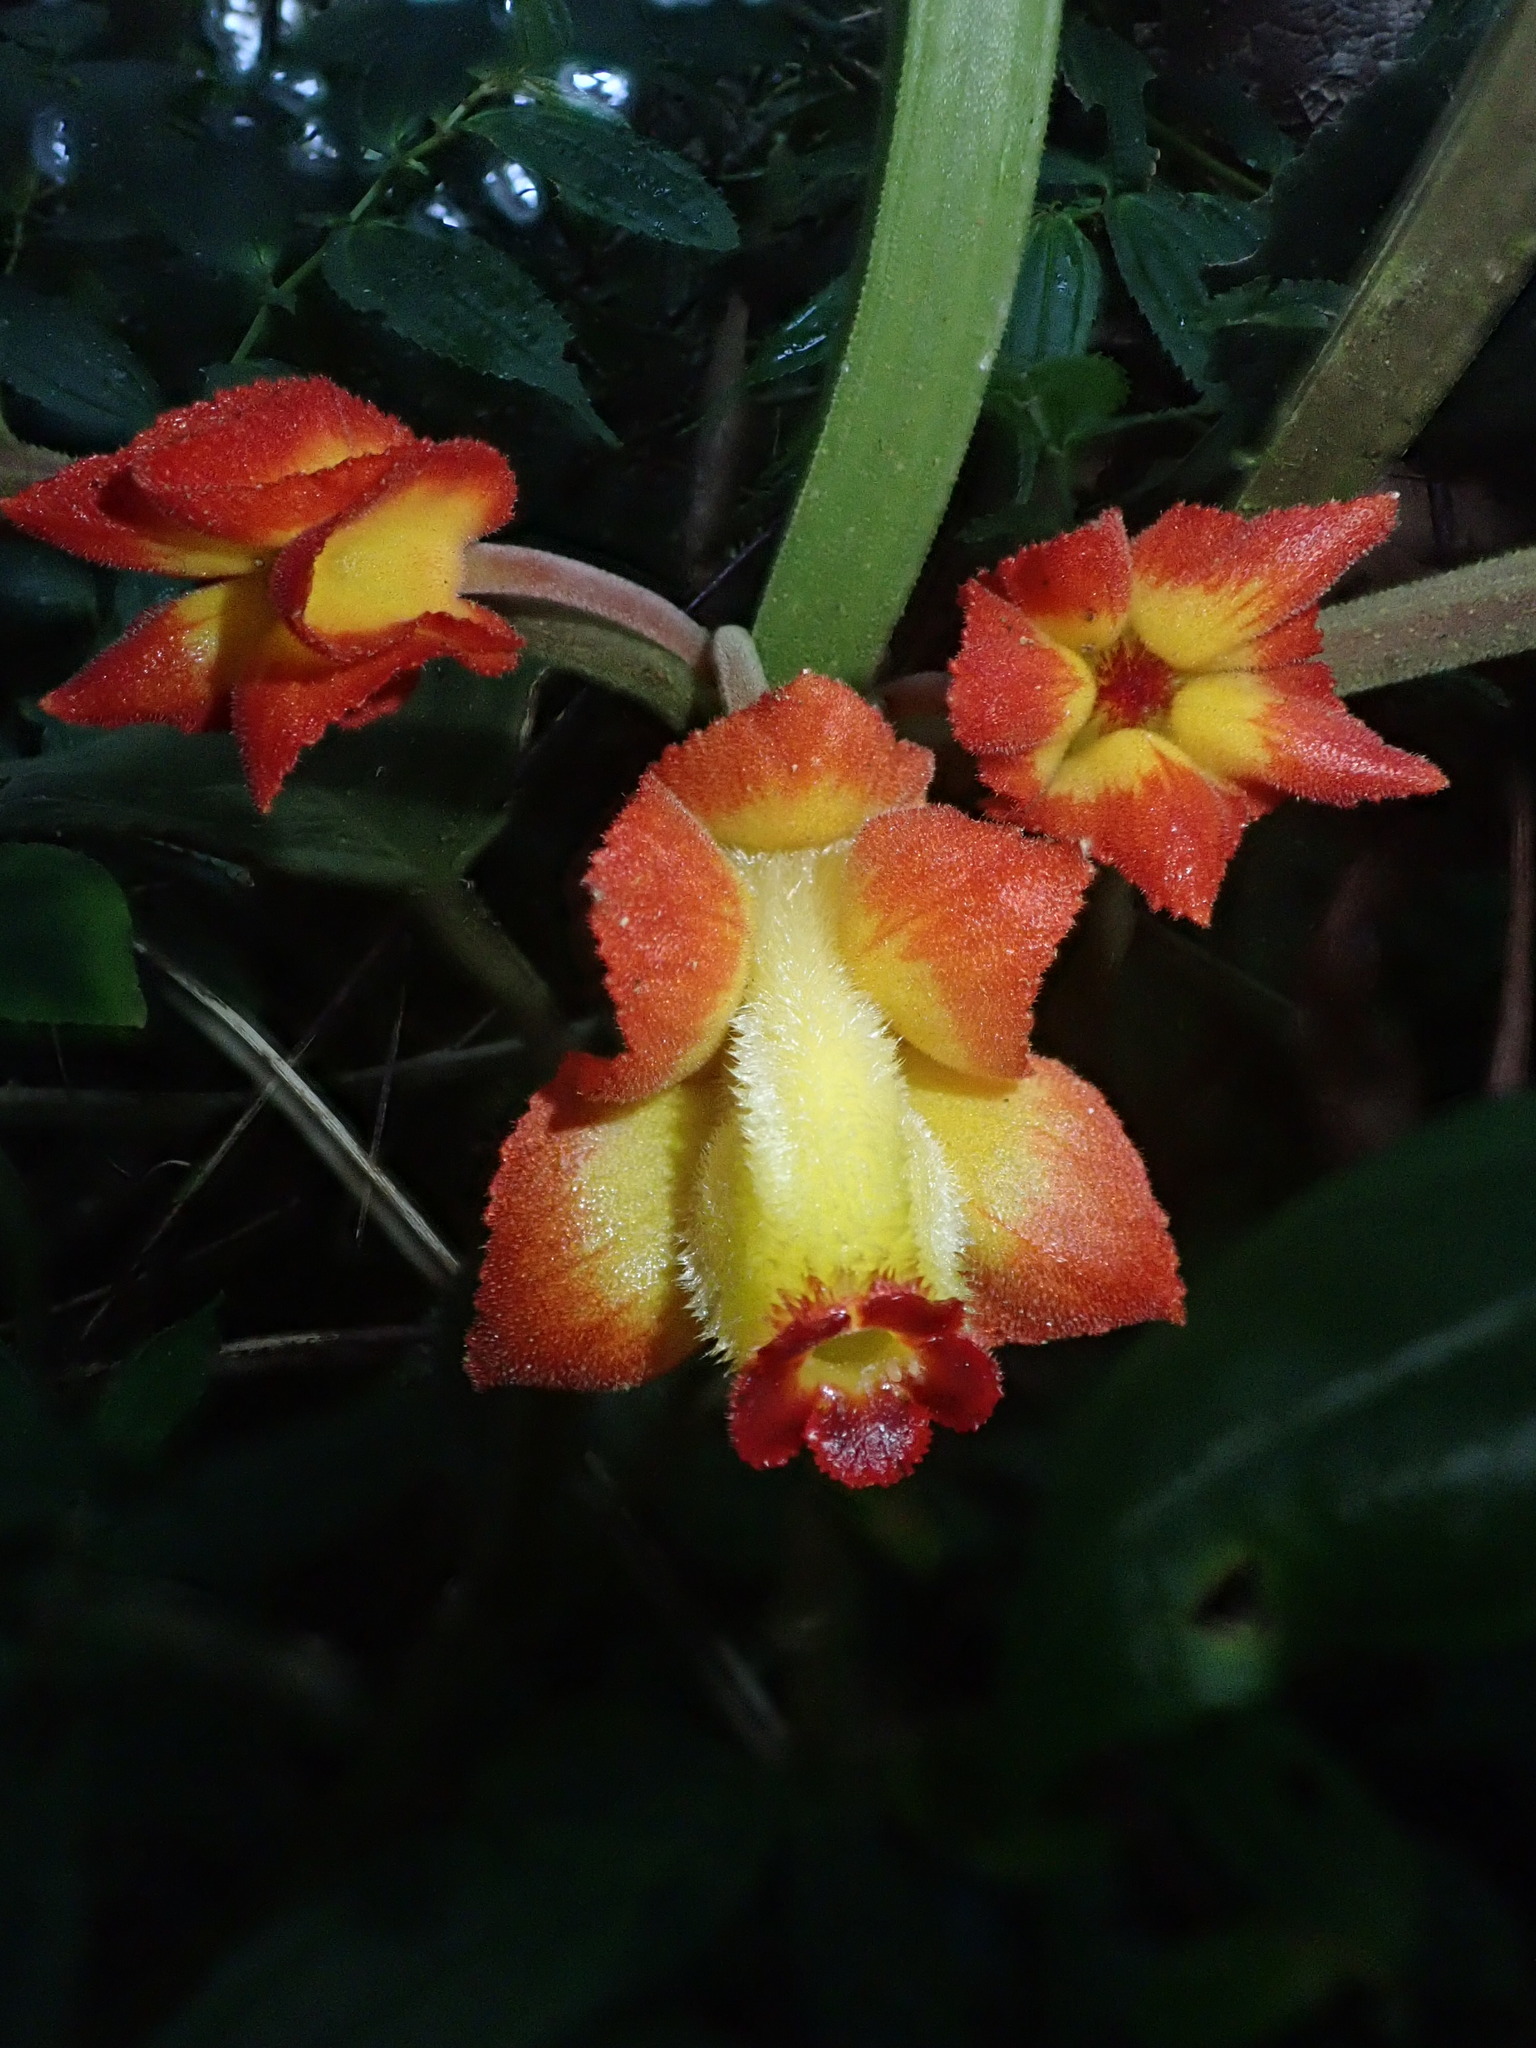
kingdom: Plantae
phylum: Tracheophyta
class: Magnoliopsida
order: Lamiales
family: Gesneriaceae
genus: Drymonia
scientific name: Drymonia ignea
